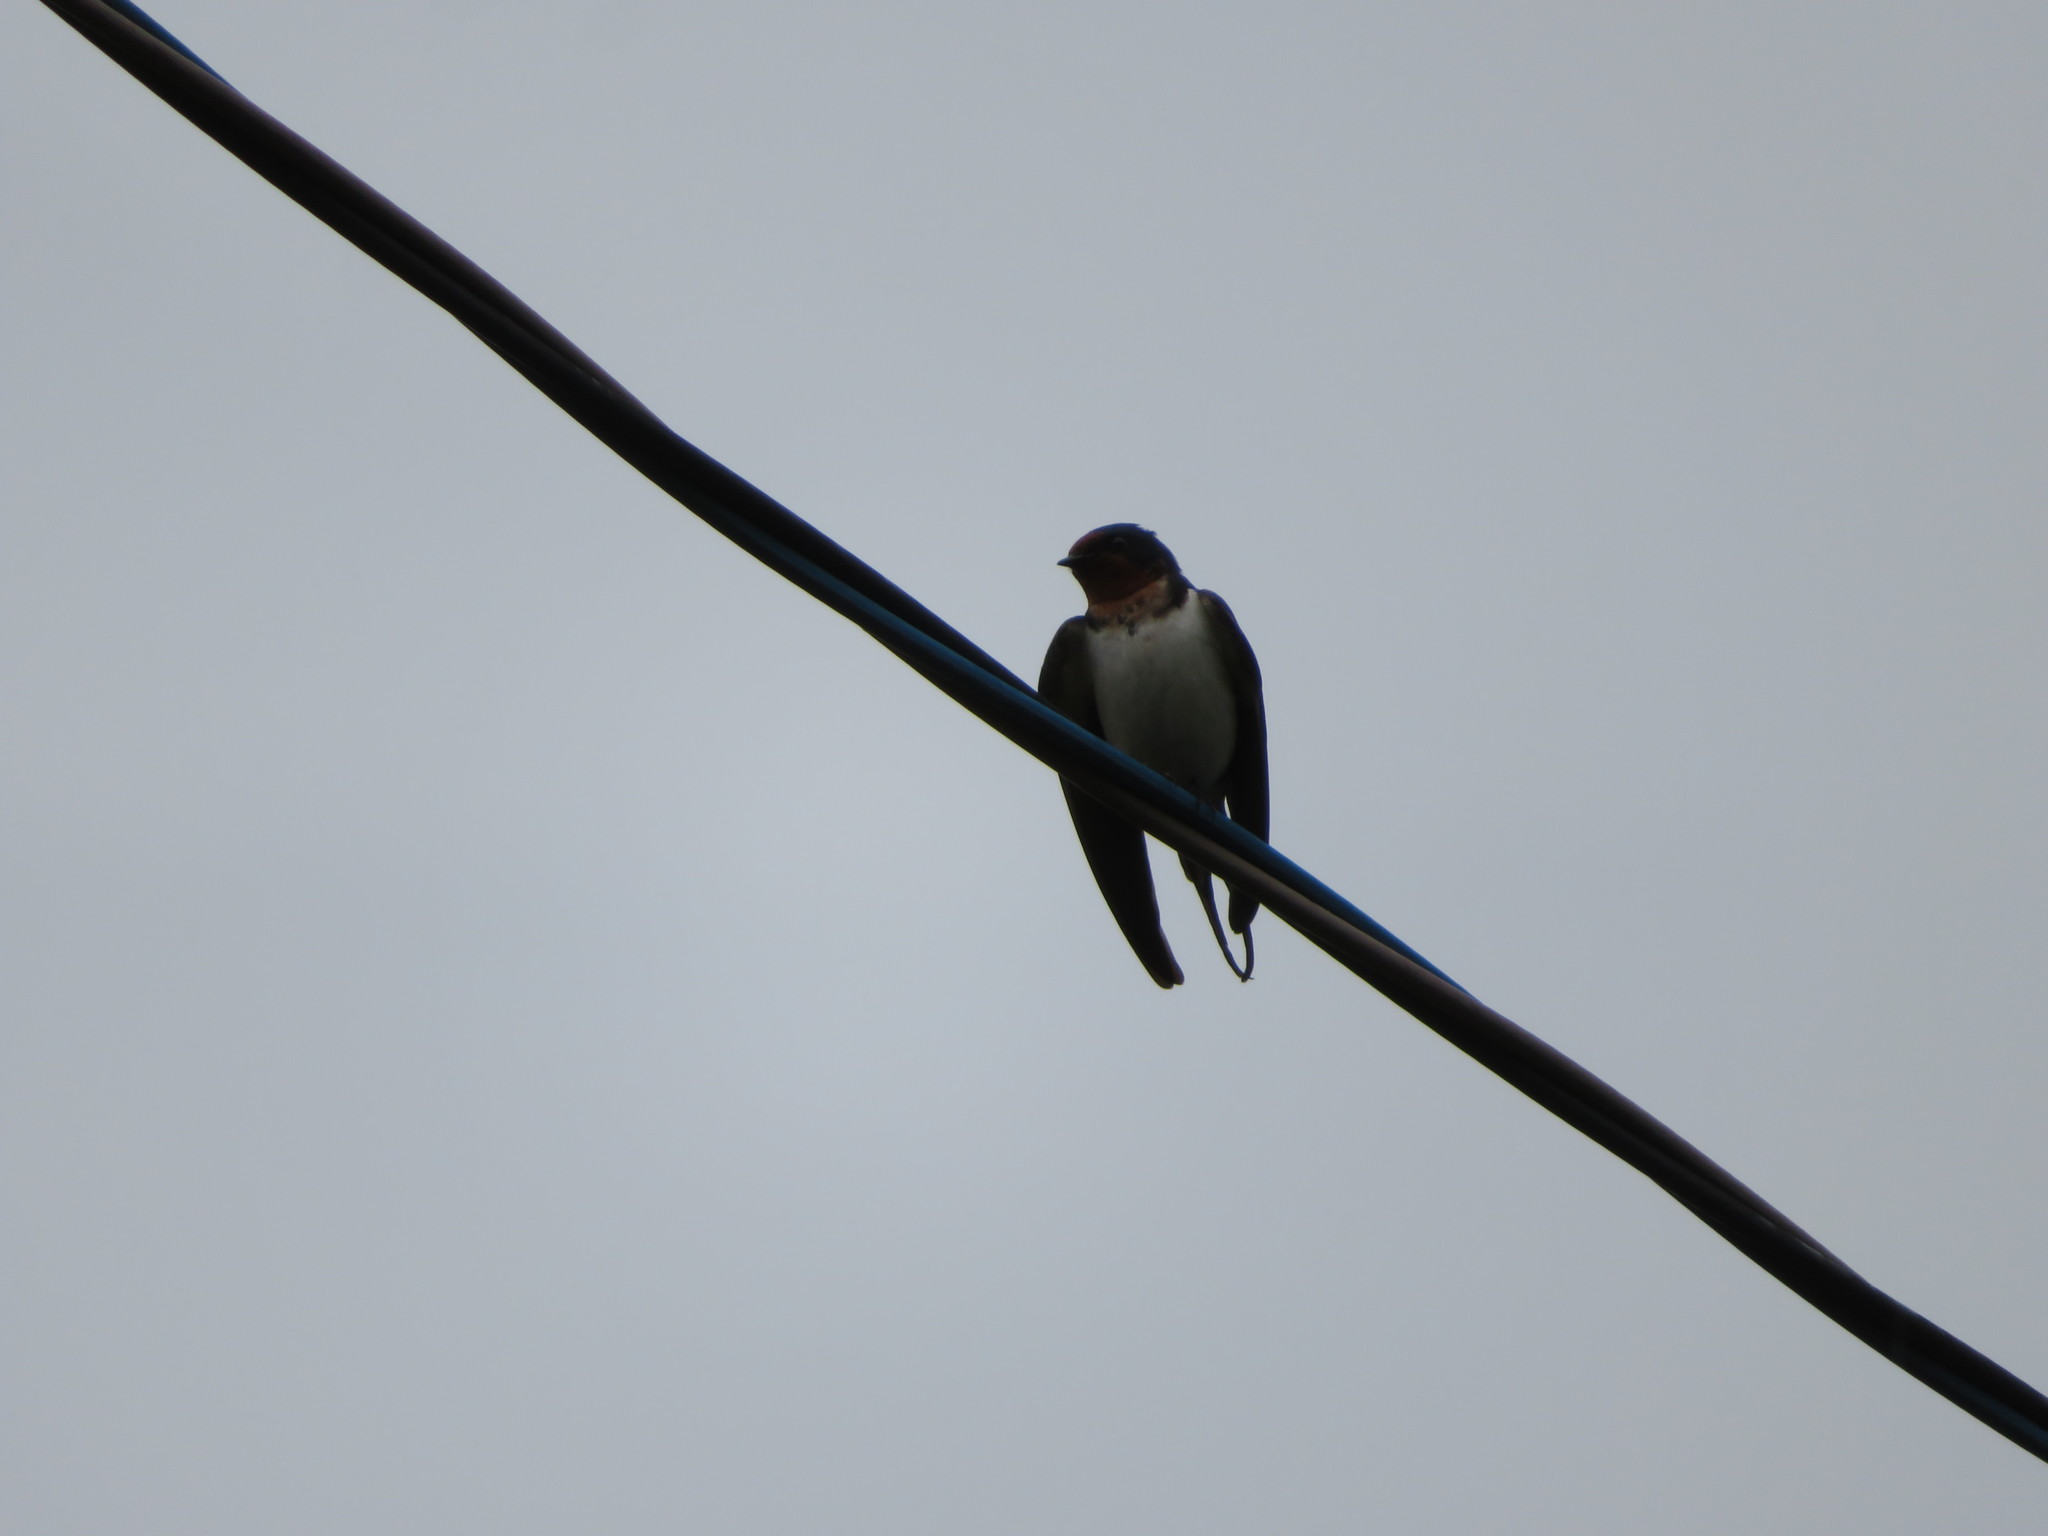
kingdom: Animalia
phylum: Chordata
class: Aves
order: Passeriformes
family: Hirundinidae
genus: Hirundo
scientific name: Hirundo rustica
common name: Barn swallow
